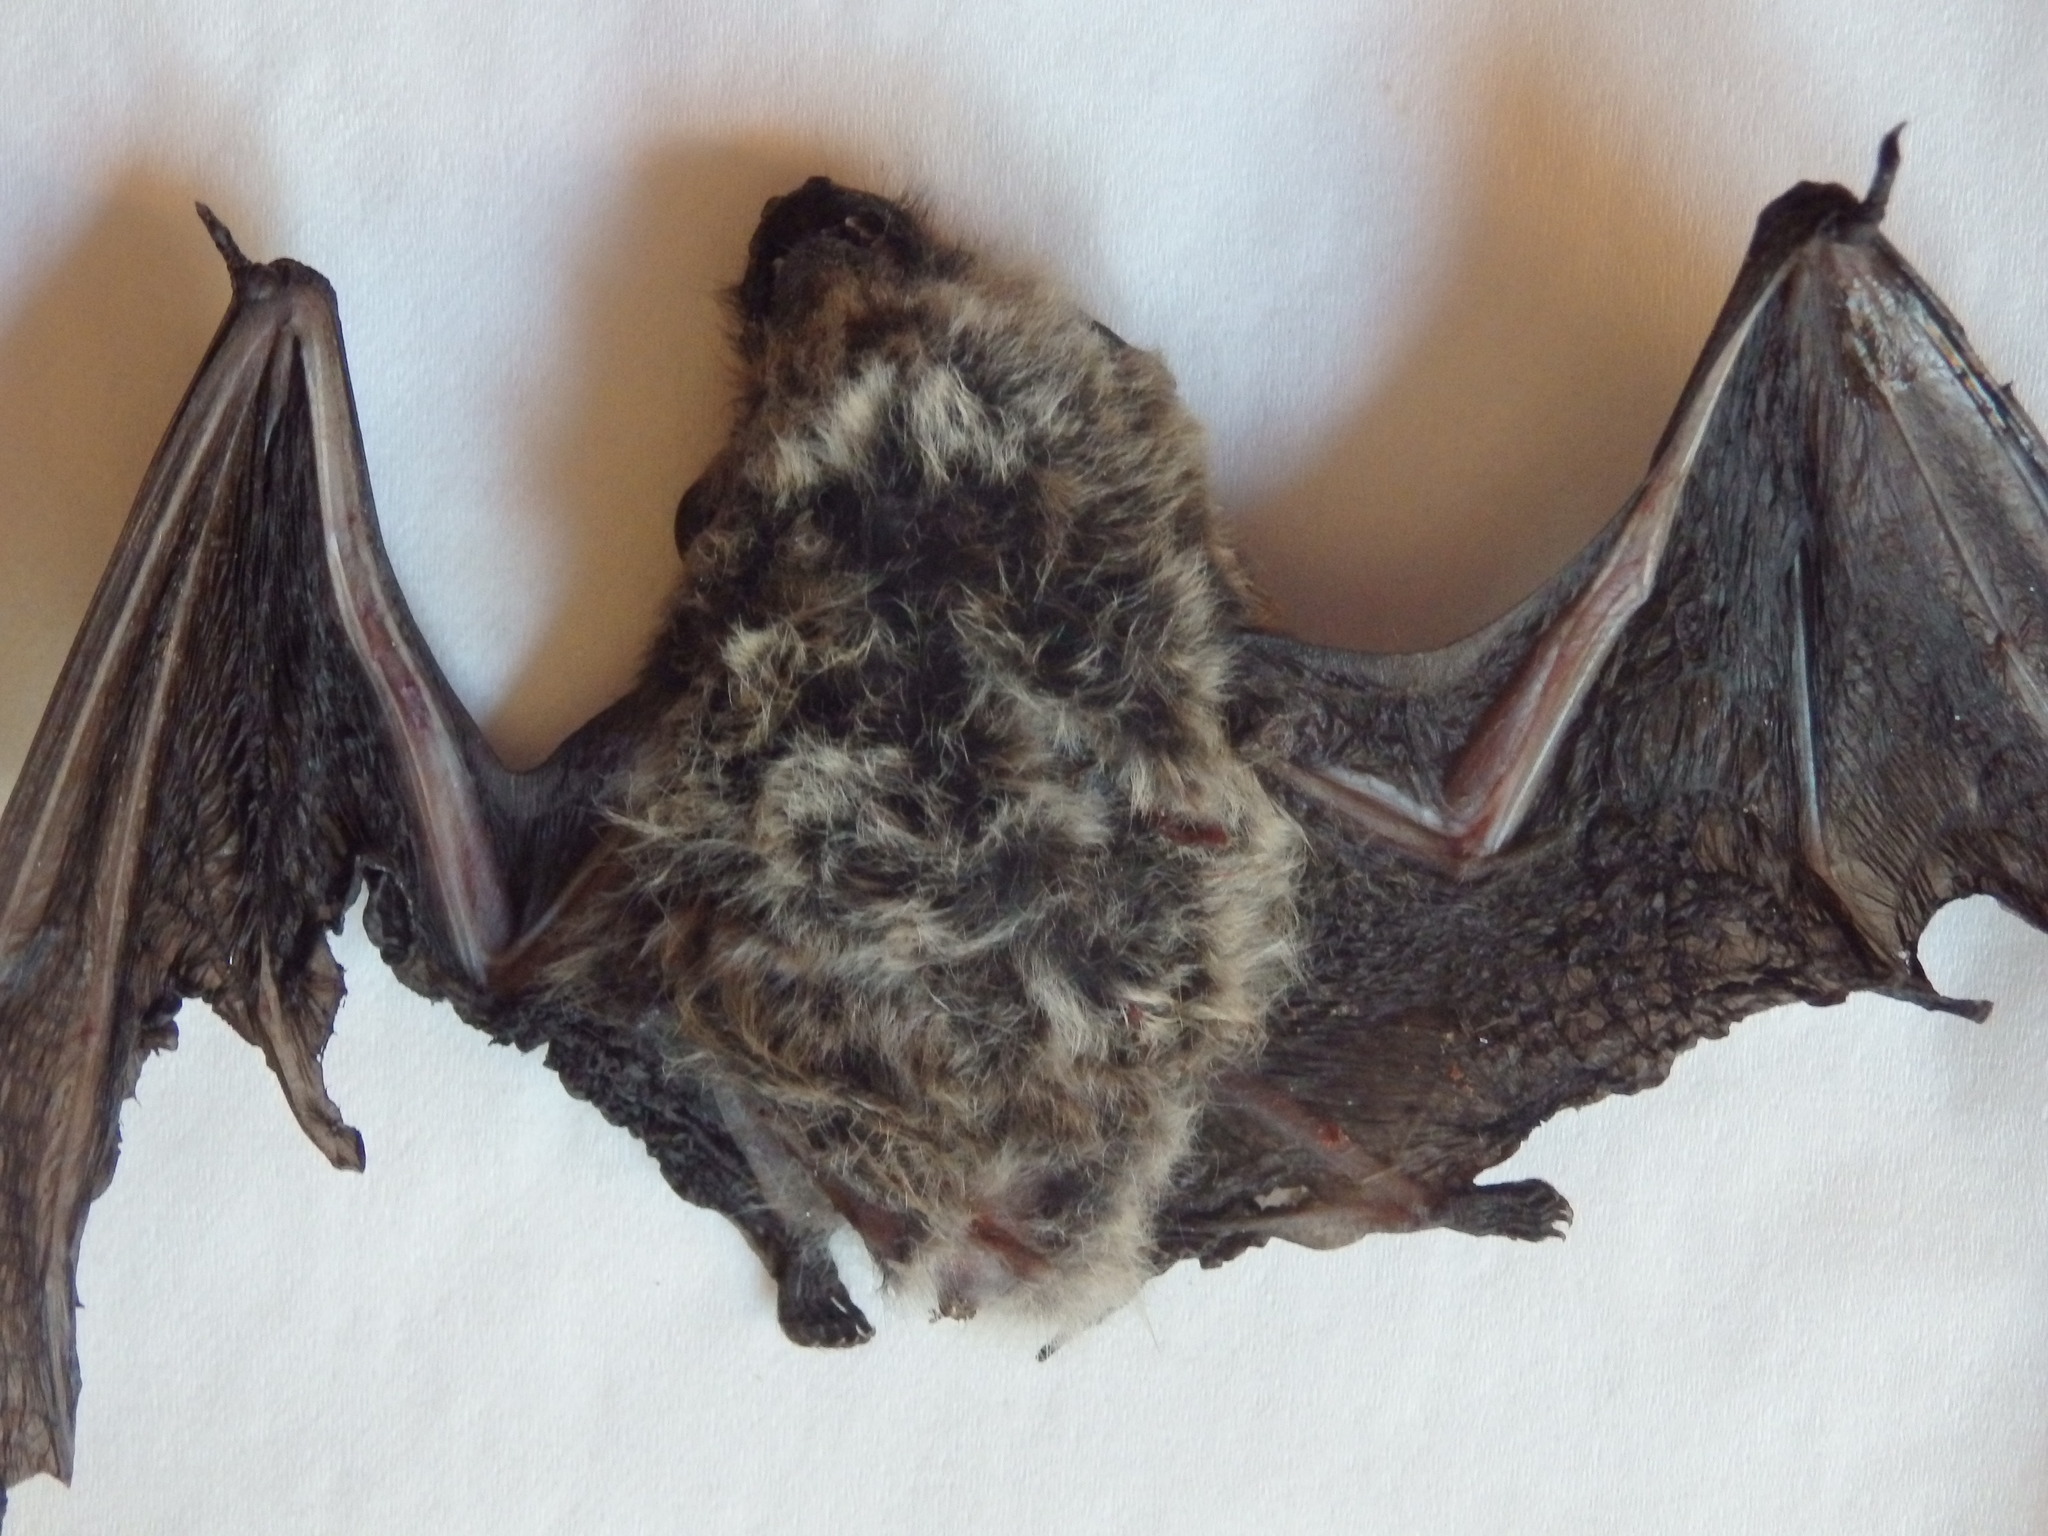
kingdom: Animalia
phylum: Chordata
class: Mammalia
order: Chiroptera
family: Vespertilionidae
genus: Hypsugo
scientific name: Hypsugo savii
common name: Savi's pipistrelle
